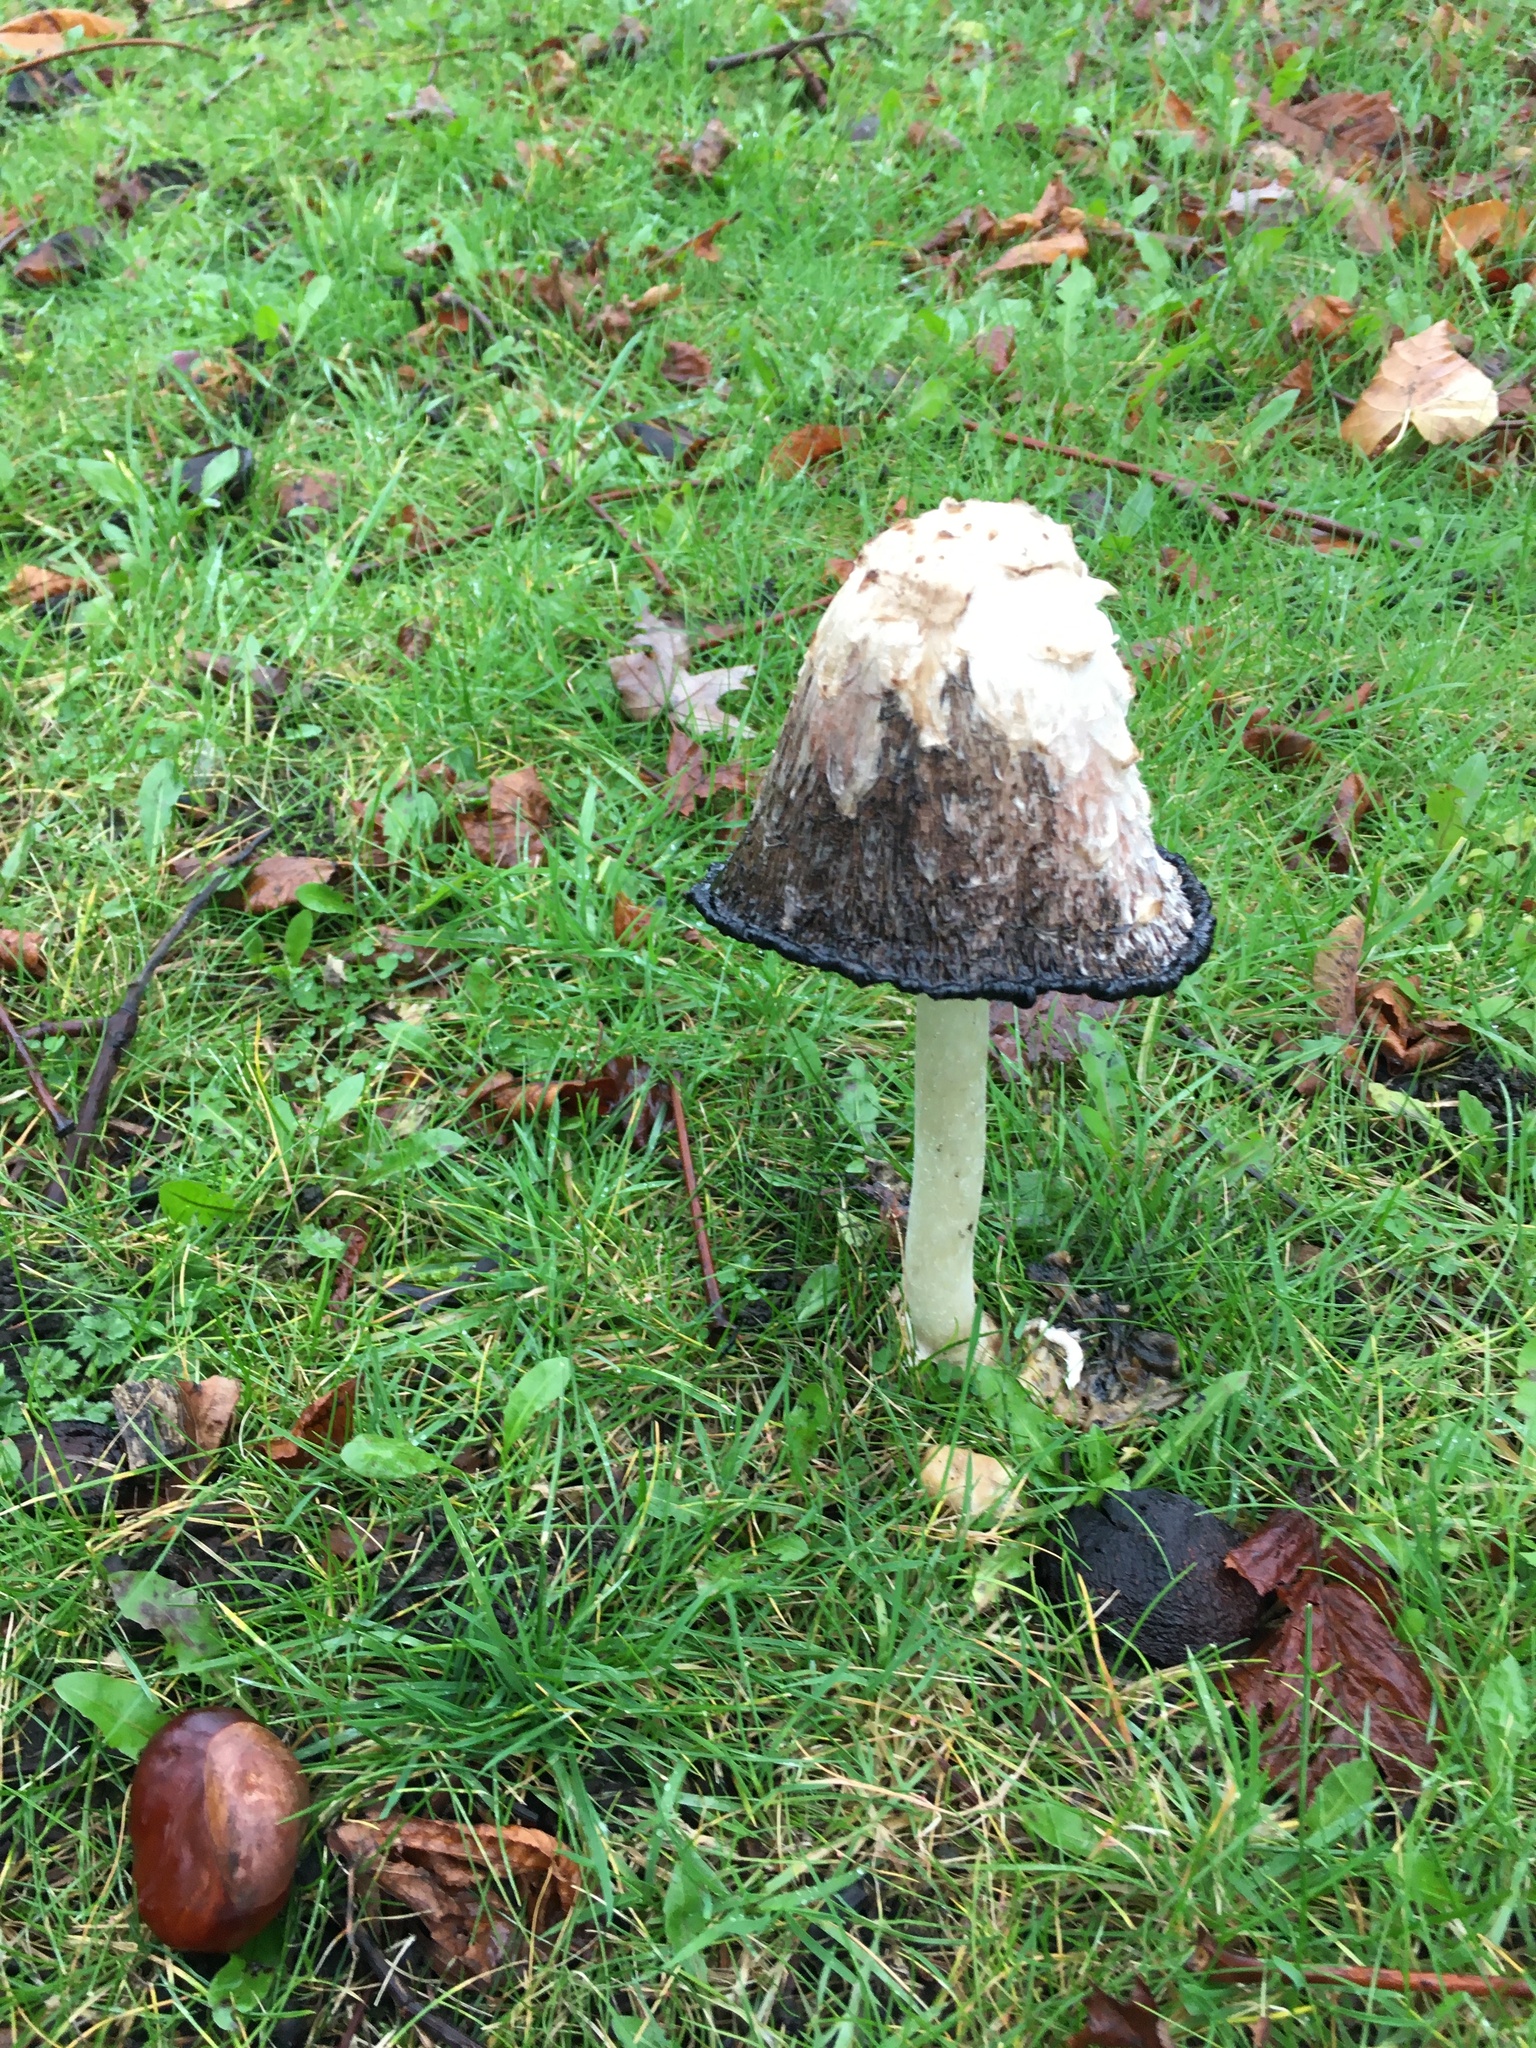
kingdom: Fungi
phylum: Basidiomycota
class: Agaricomycetes
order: Agaricales
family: Agaricaceae
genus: Coprinus
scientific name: Coprinus comatus
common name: Lawyer's wig
